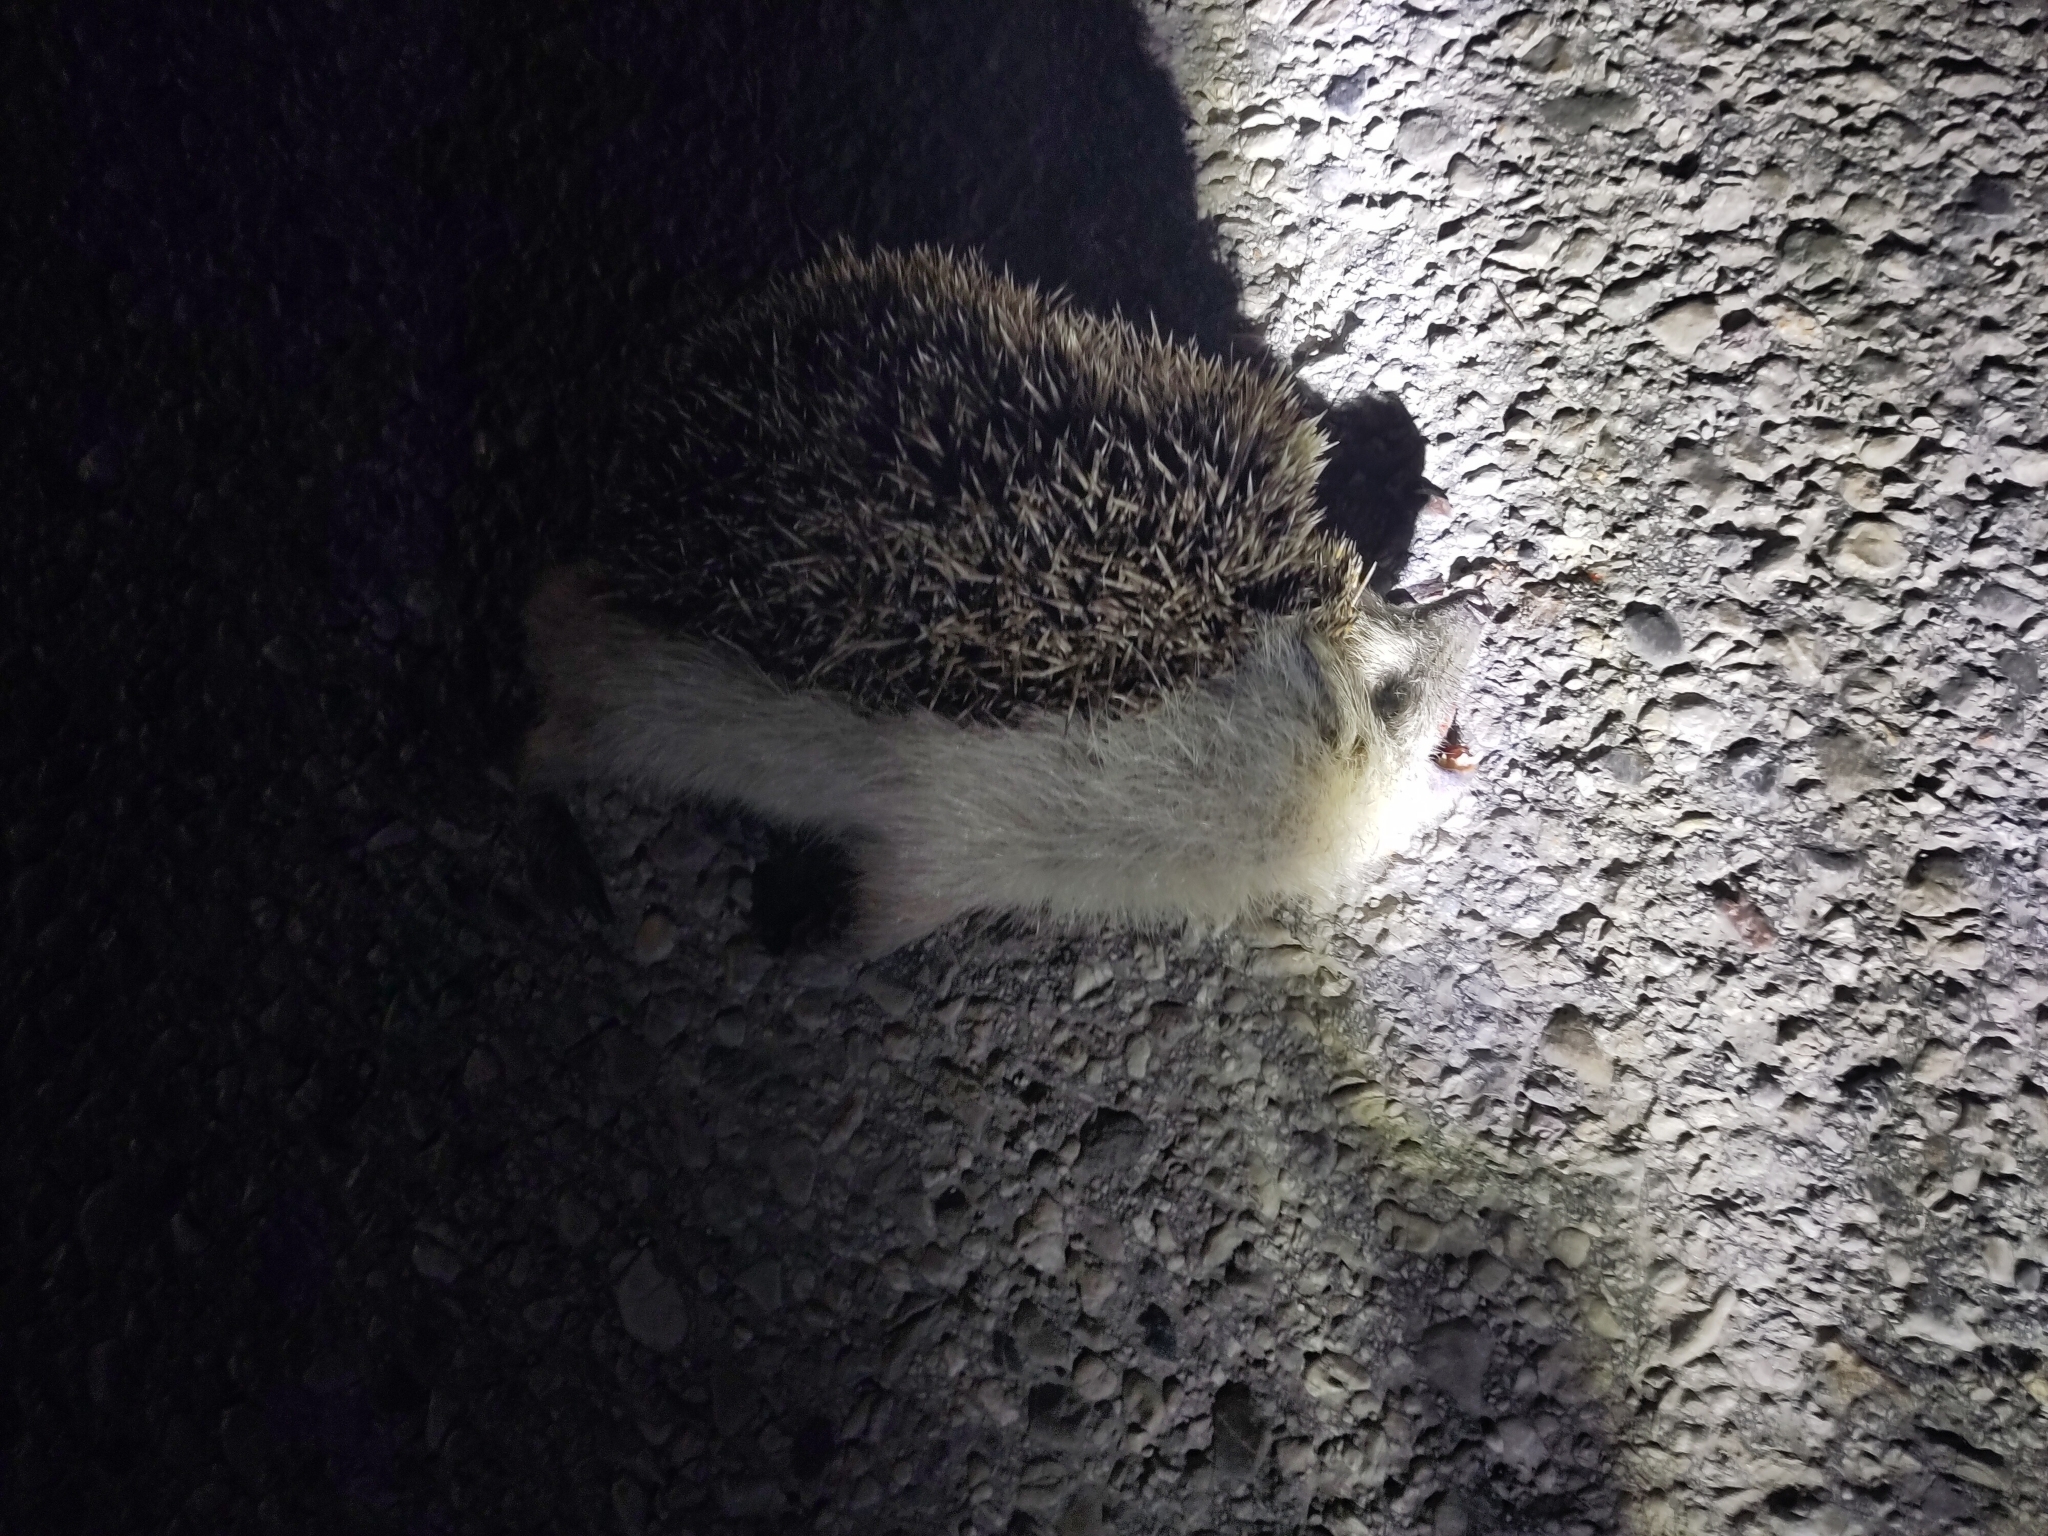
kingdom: Animalia
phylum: Chordata
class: Mammalia
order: Erinaceomorpha
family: Erinaceidae
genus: Erinaceus
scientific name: Erinaceus europaeus
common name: West european hedgehog
